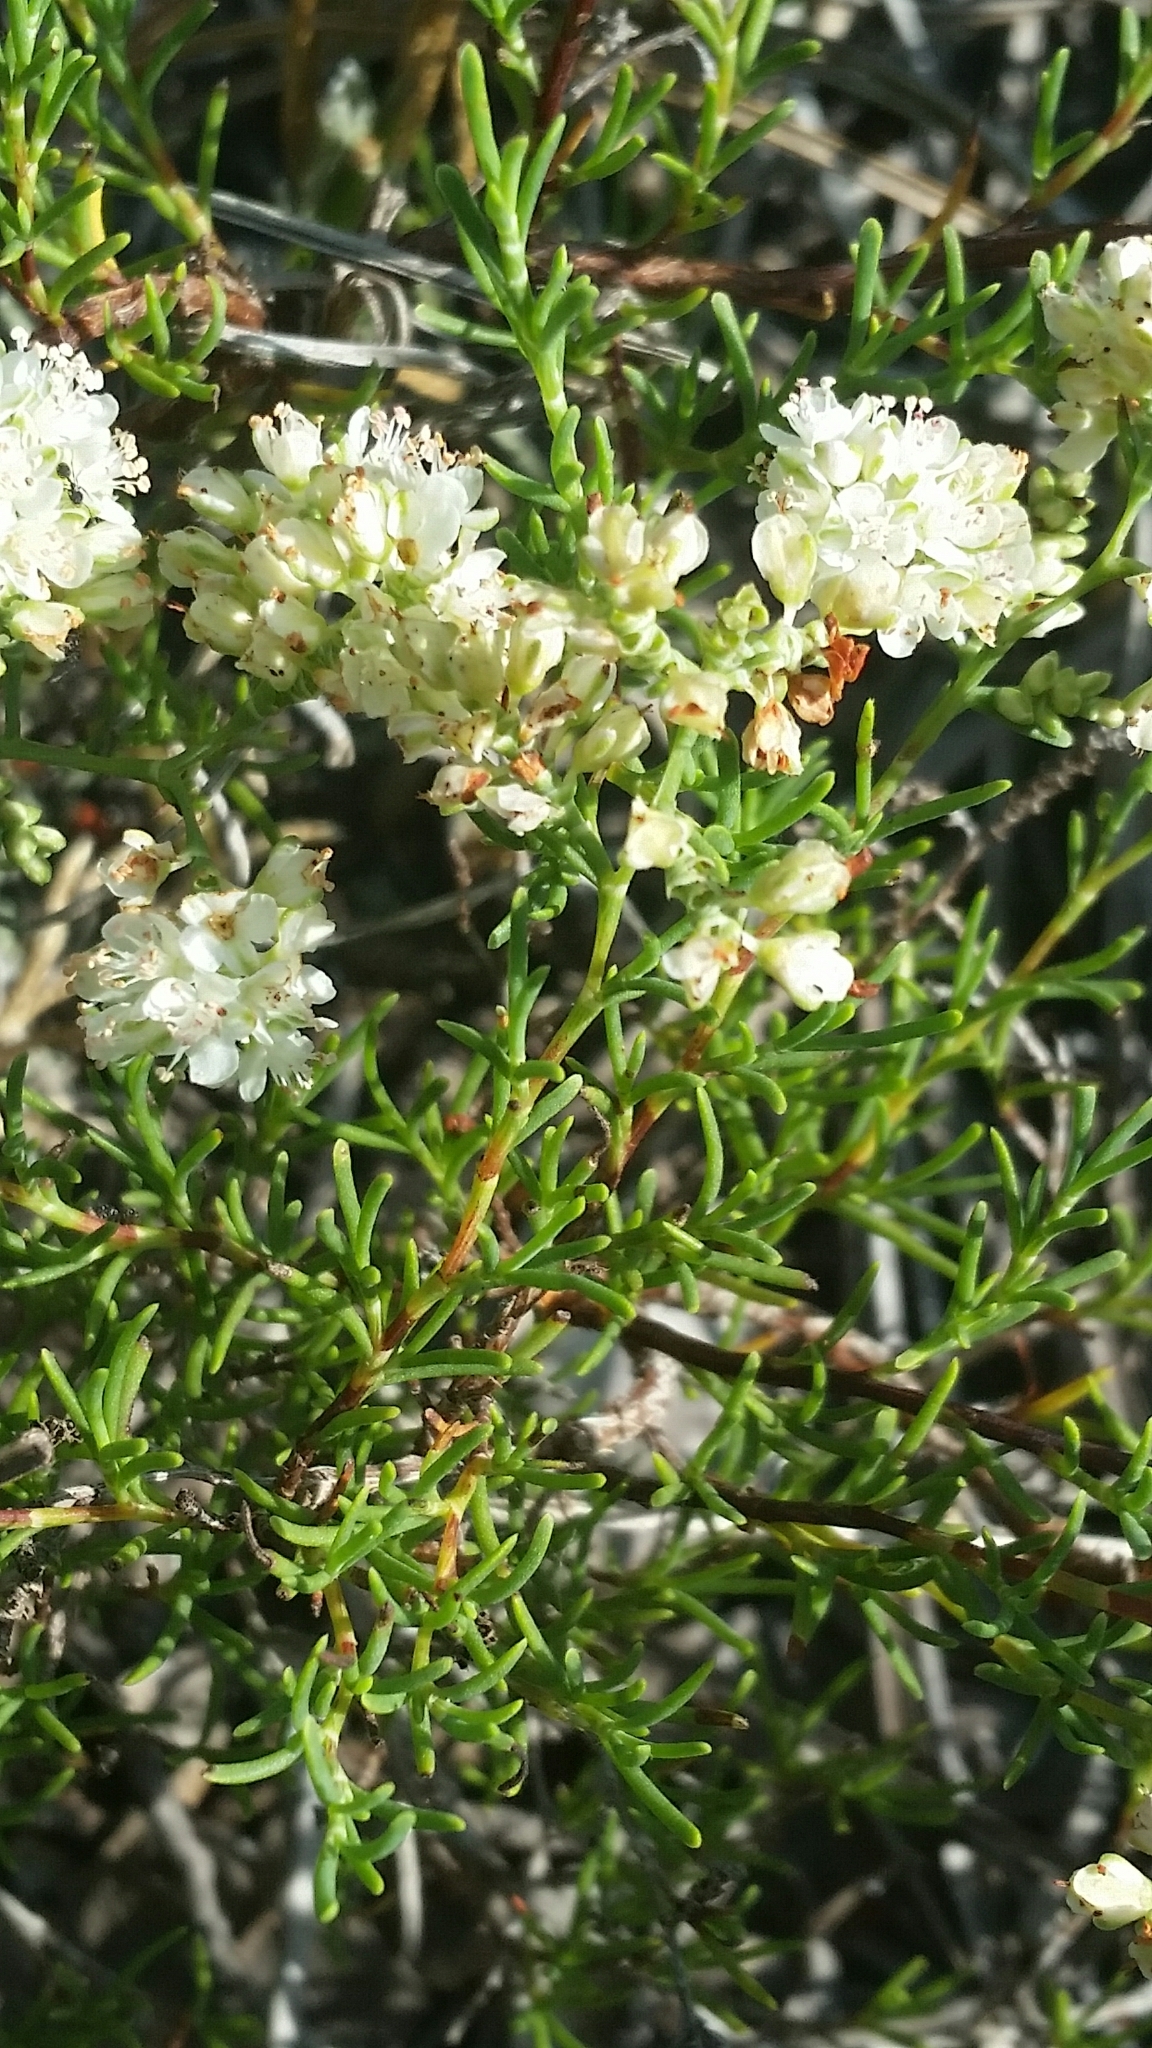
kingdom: Plantae
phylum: Tracheophyta
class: Magnoliopsida
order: Caryophyllales
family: Polygonaceae
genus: Polygonella
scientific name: Polygonella myriophylla
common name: Sandlace
